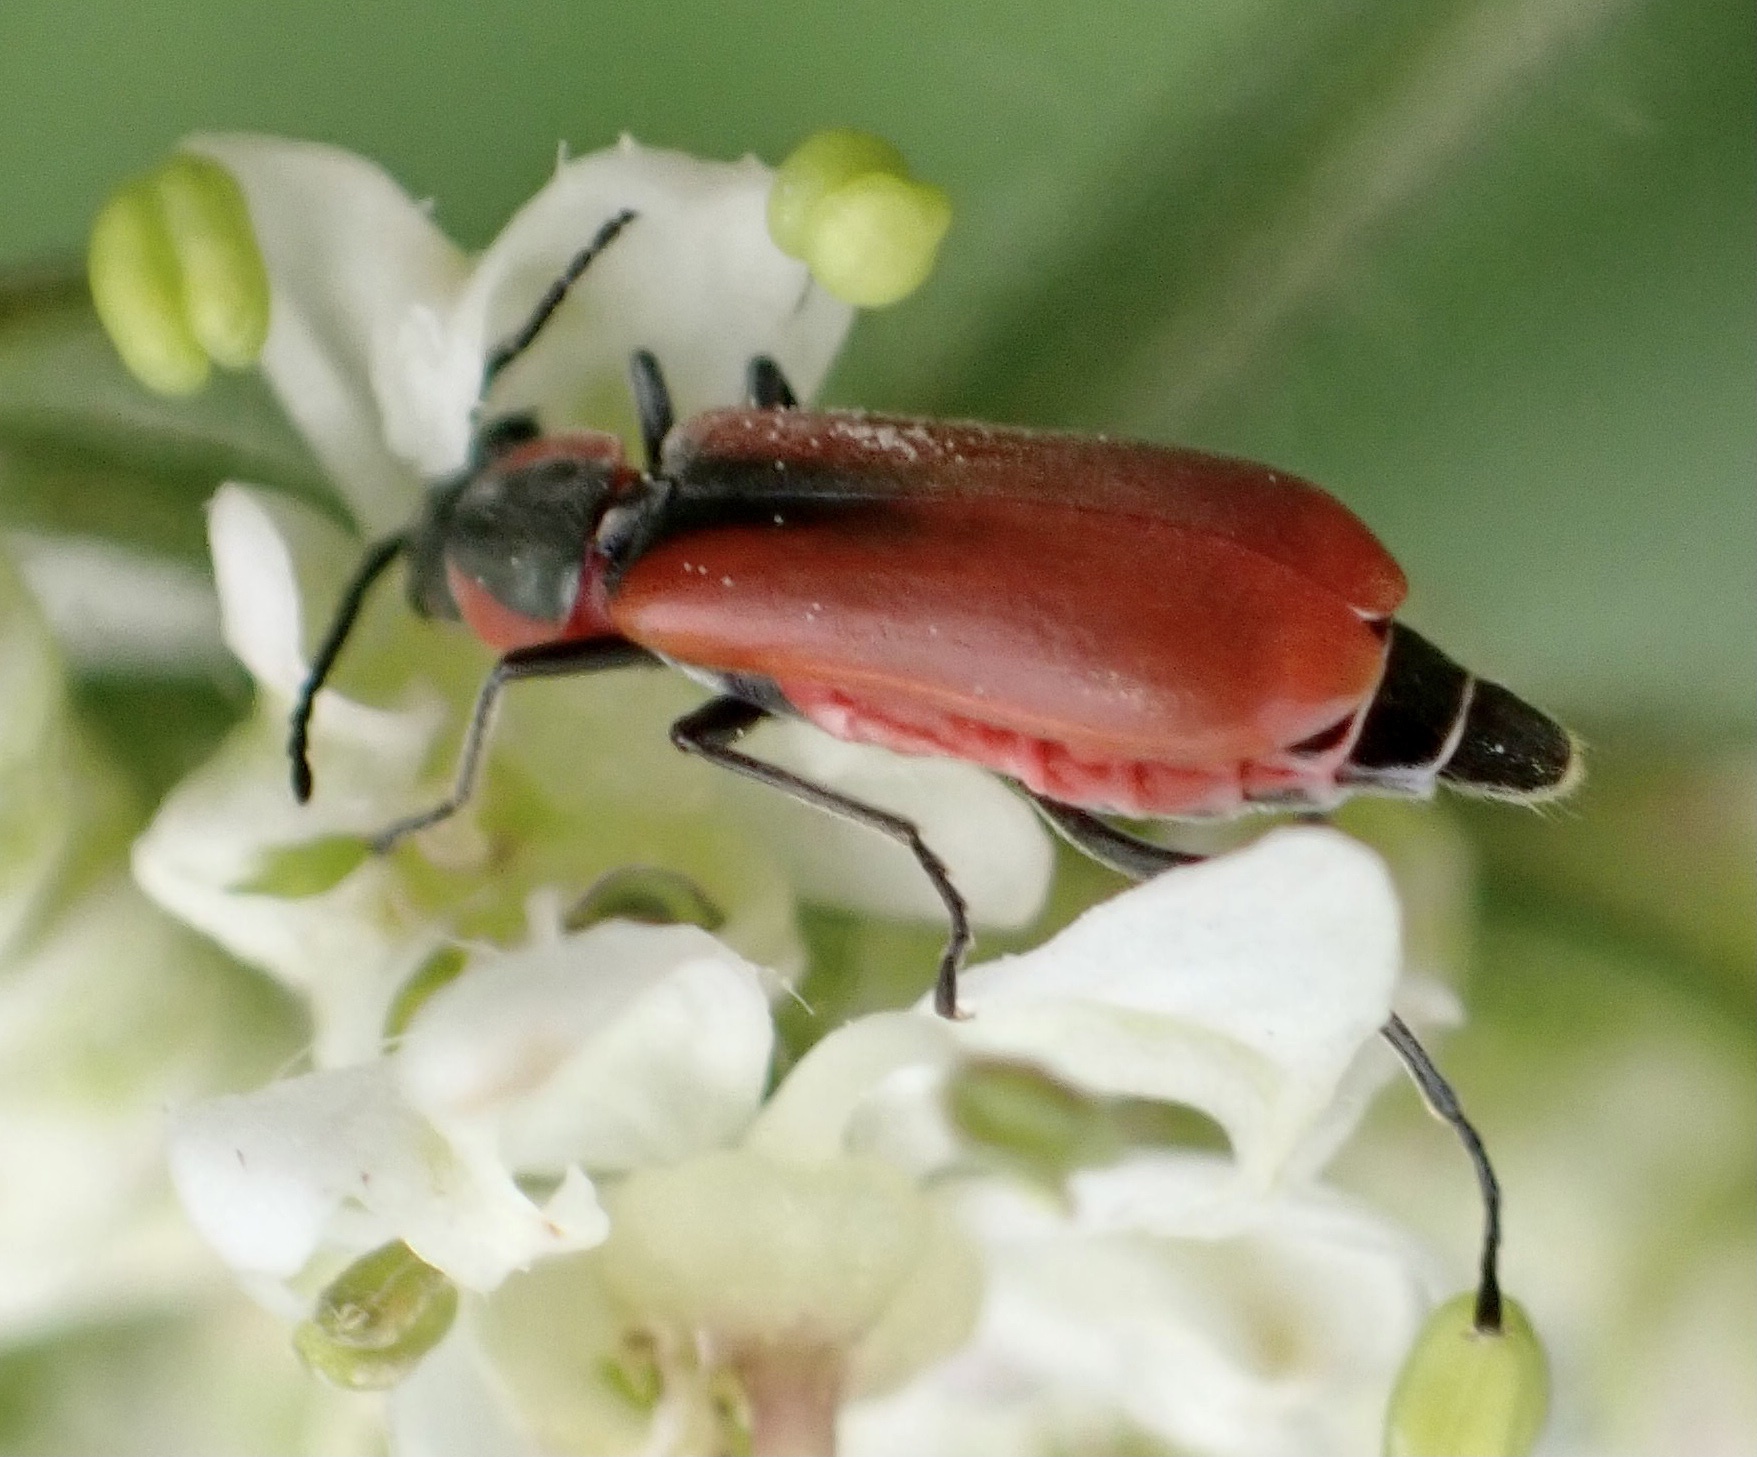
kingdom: Animalia
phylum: Arthropoda
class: Insecta
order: Coleoptera
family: Melyridae
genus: Anthocomus
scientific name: Anthocomus rufus
